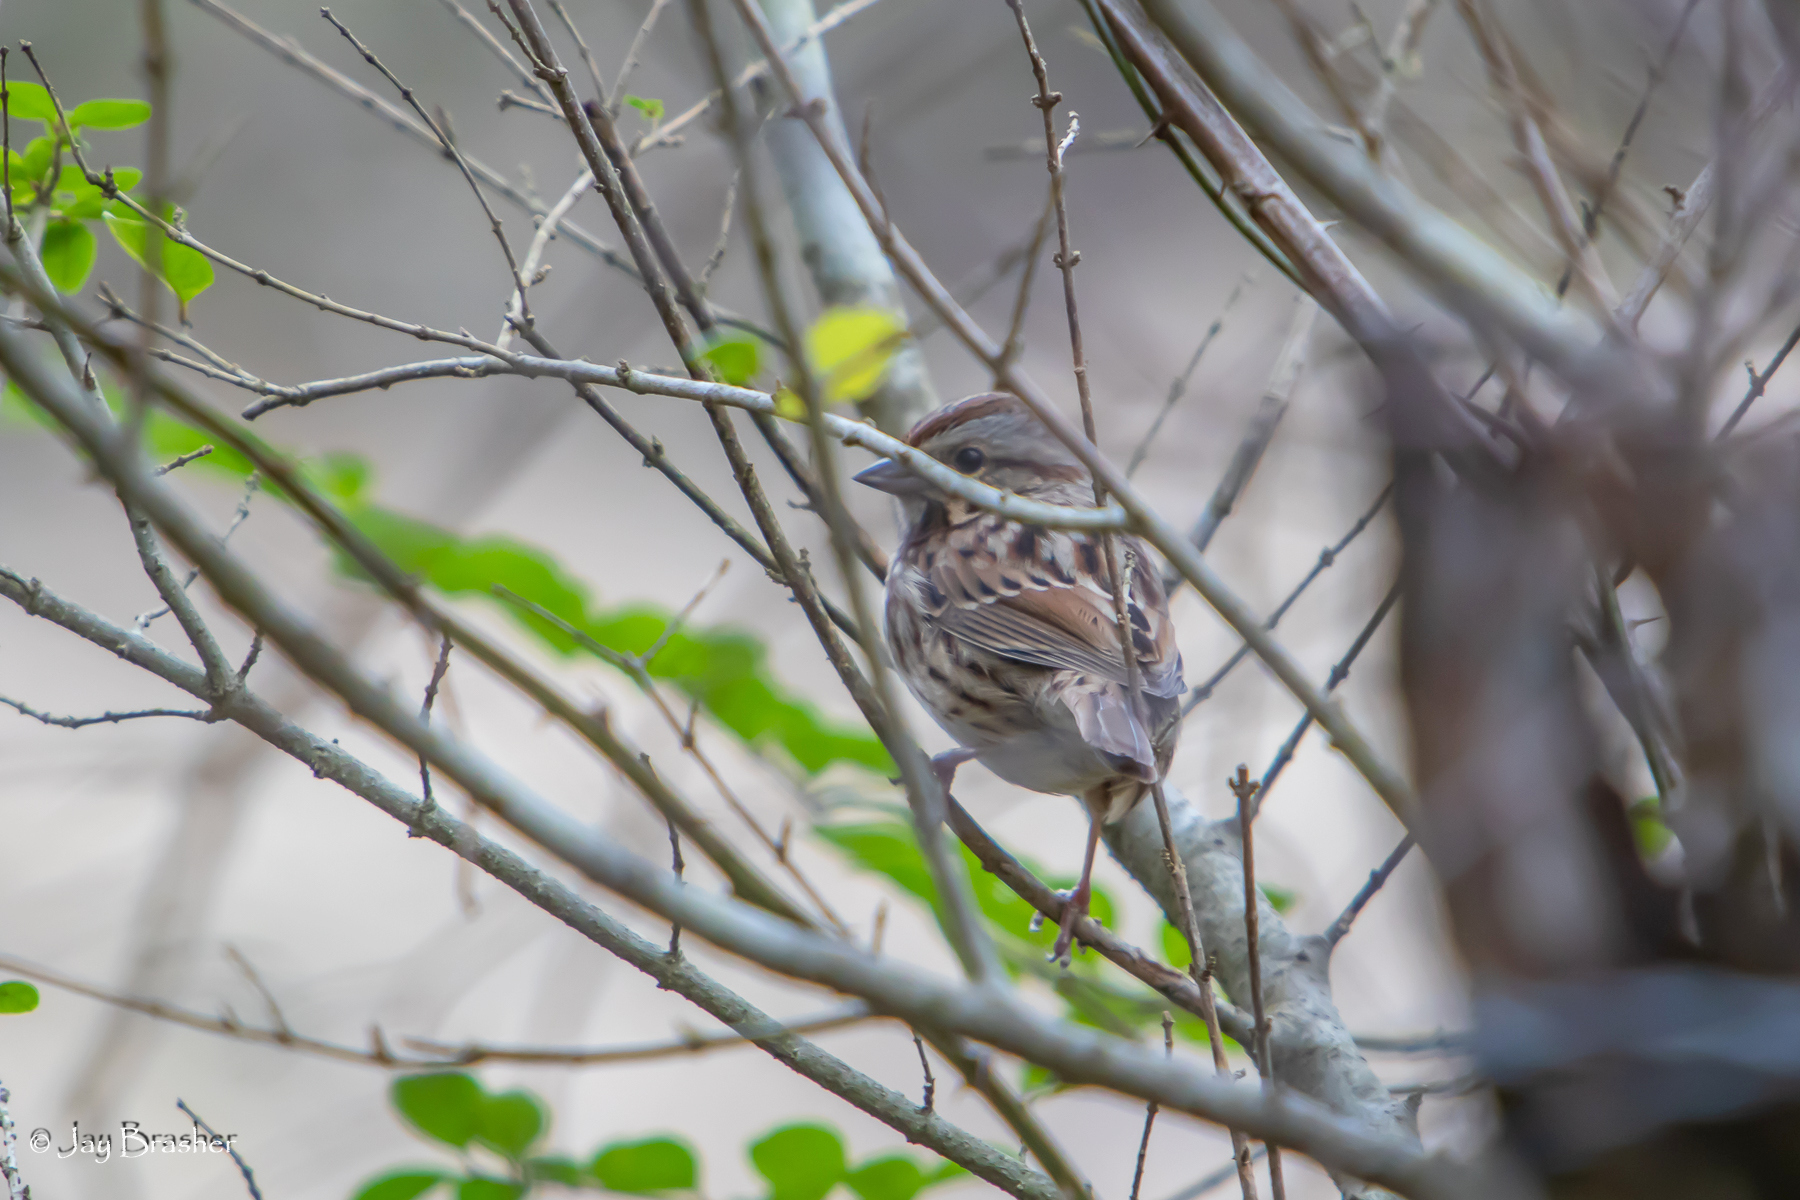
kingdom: Animalia
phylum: Chordata
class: Aves
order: Passeriformes
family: Passerellidae
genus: Melospiza
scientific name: Melospiza melodia
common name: Song sparrow
